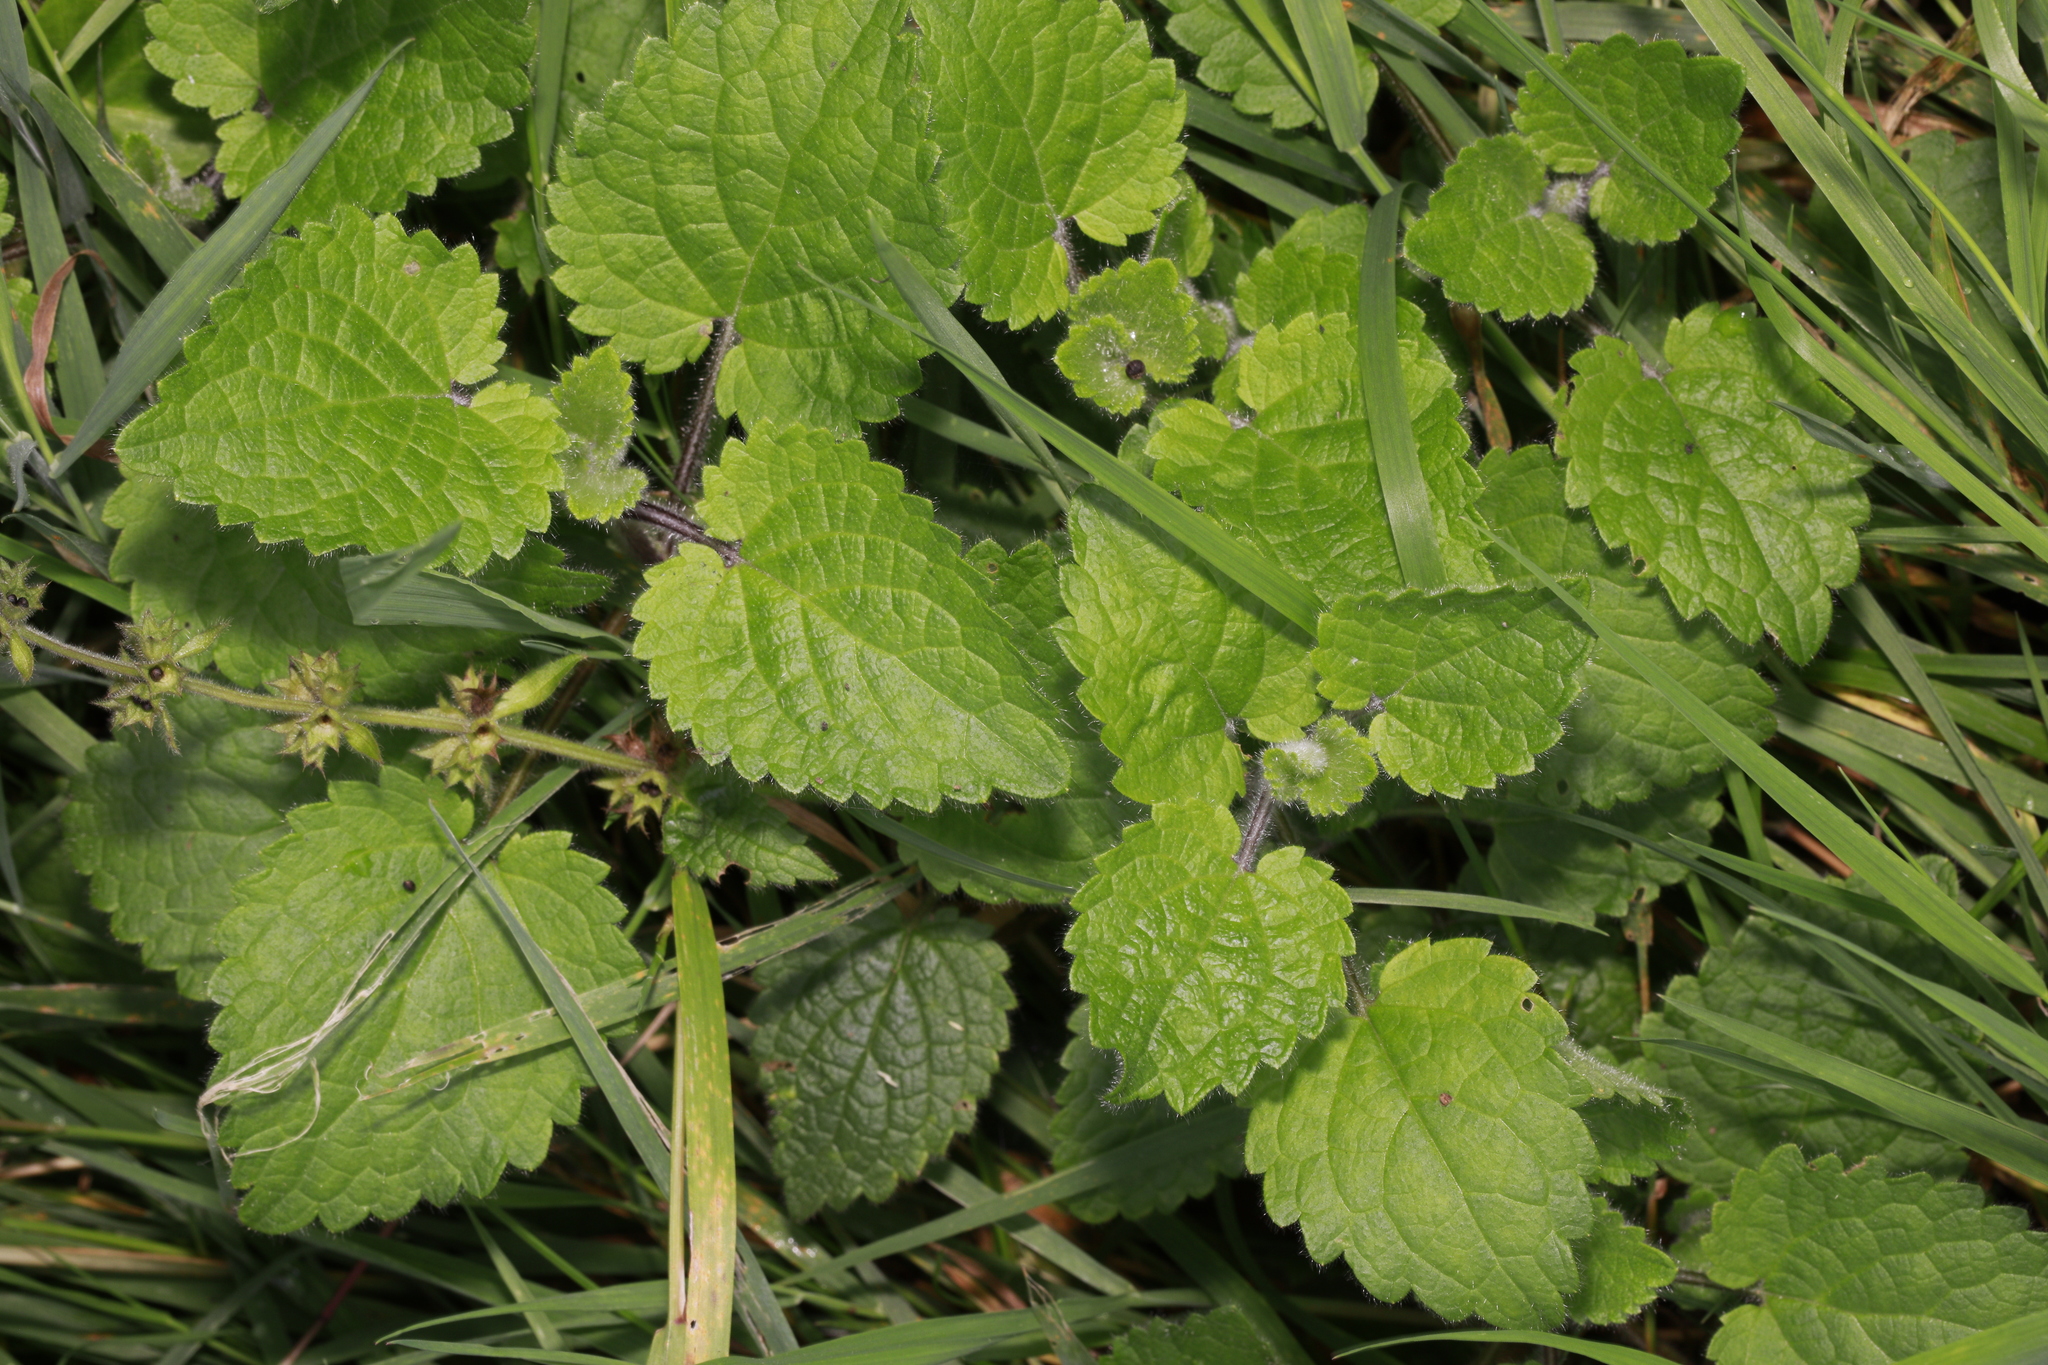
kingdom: Plantae
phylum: Tracheophyta
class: Magnoliopsida
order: Lamiales
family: Lamiaceae
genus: Stachys
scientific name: Stachys sylvatica
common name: Hedge woundwort
